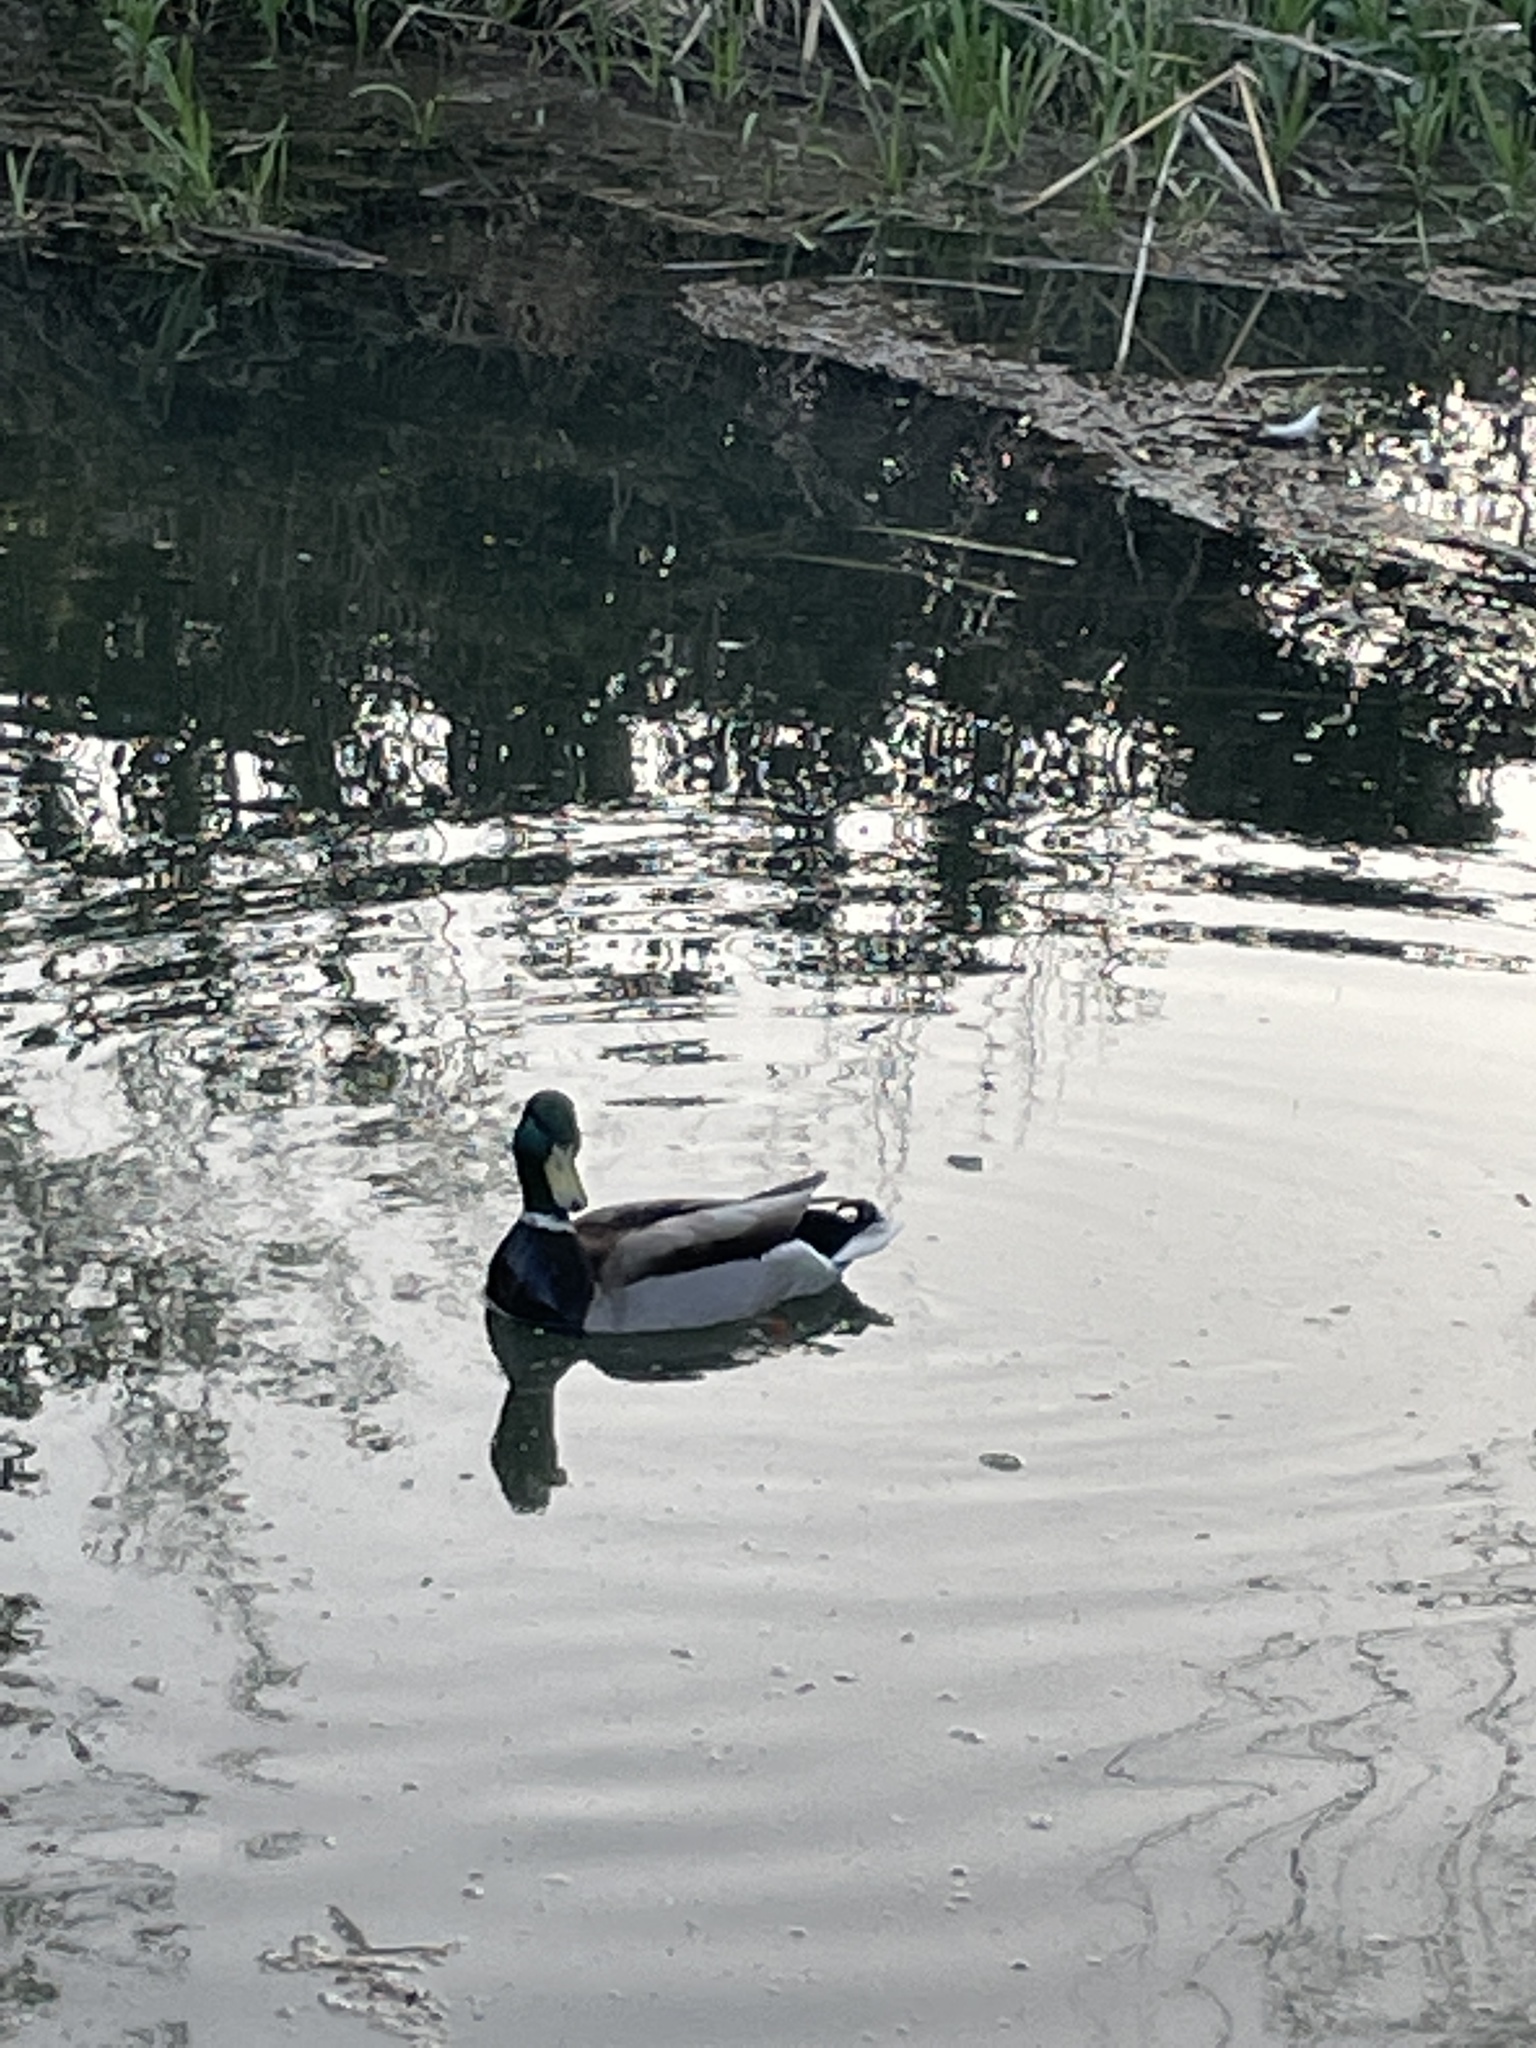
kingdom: Animalia
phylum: Chordata
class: Aves
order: Anseriformes
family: Anatidae
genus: Anas
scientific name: Anas platyrhynchos
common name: Mallard
